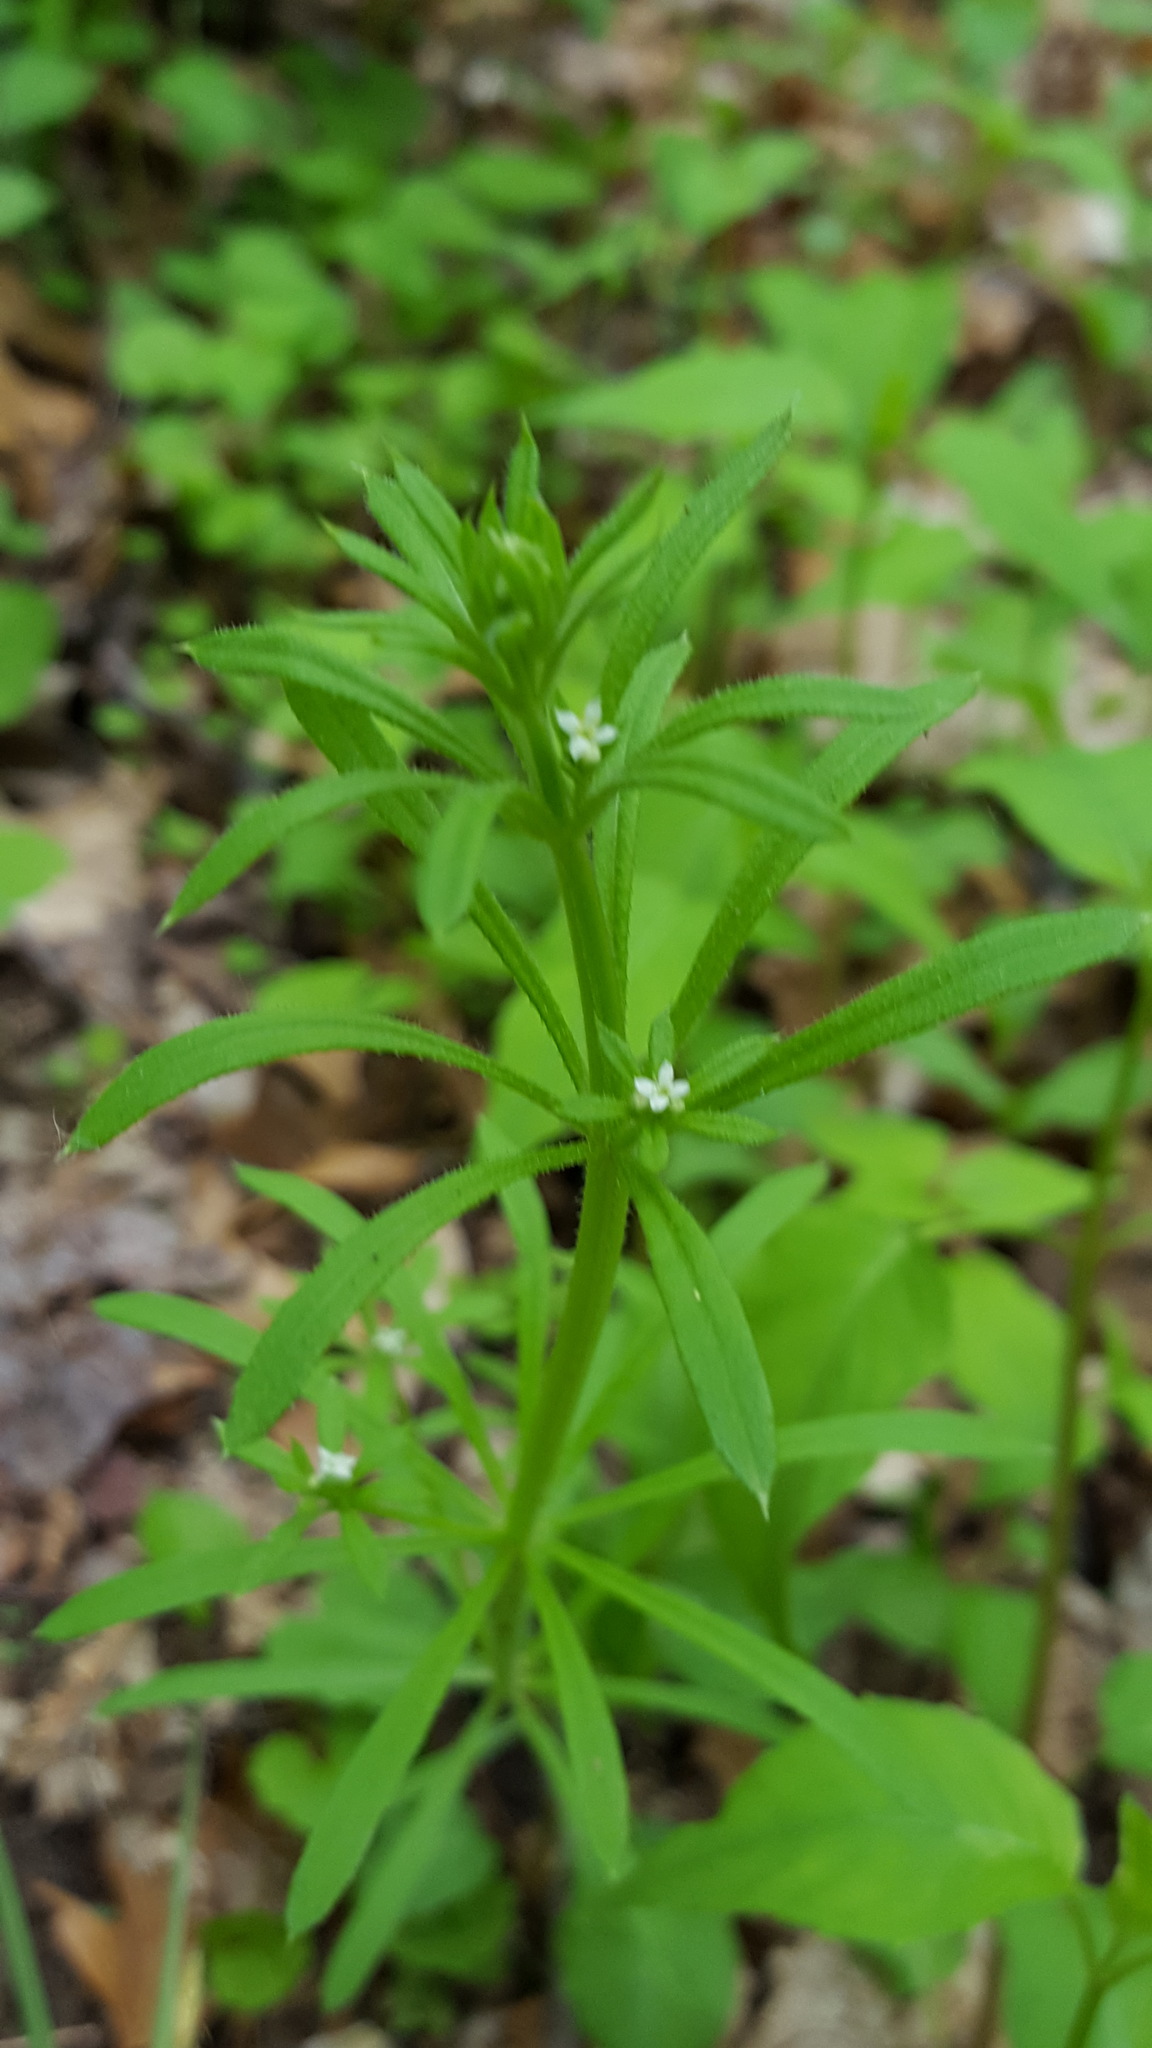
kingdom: Plantae
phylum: Tracheophyta
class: Magnoliopsida
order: Gentianales
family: Rubiaceae
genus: Galium
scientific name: Galium aparine
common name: Cleavers
